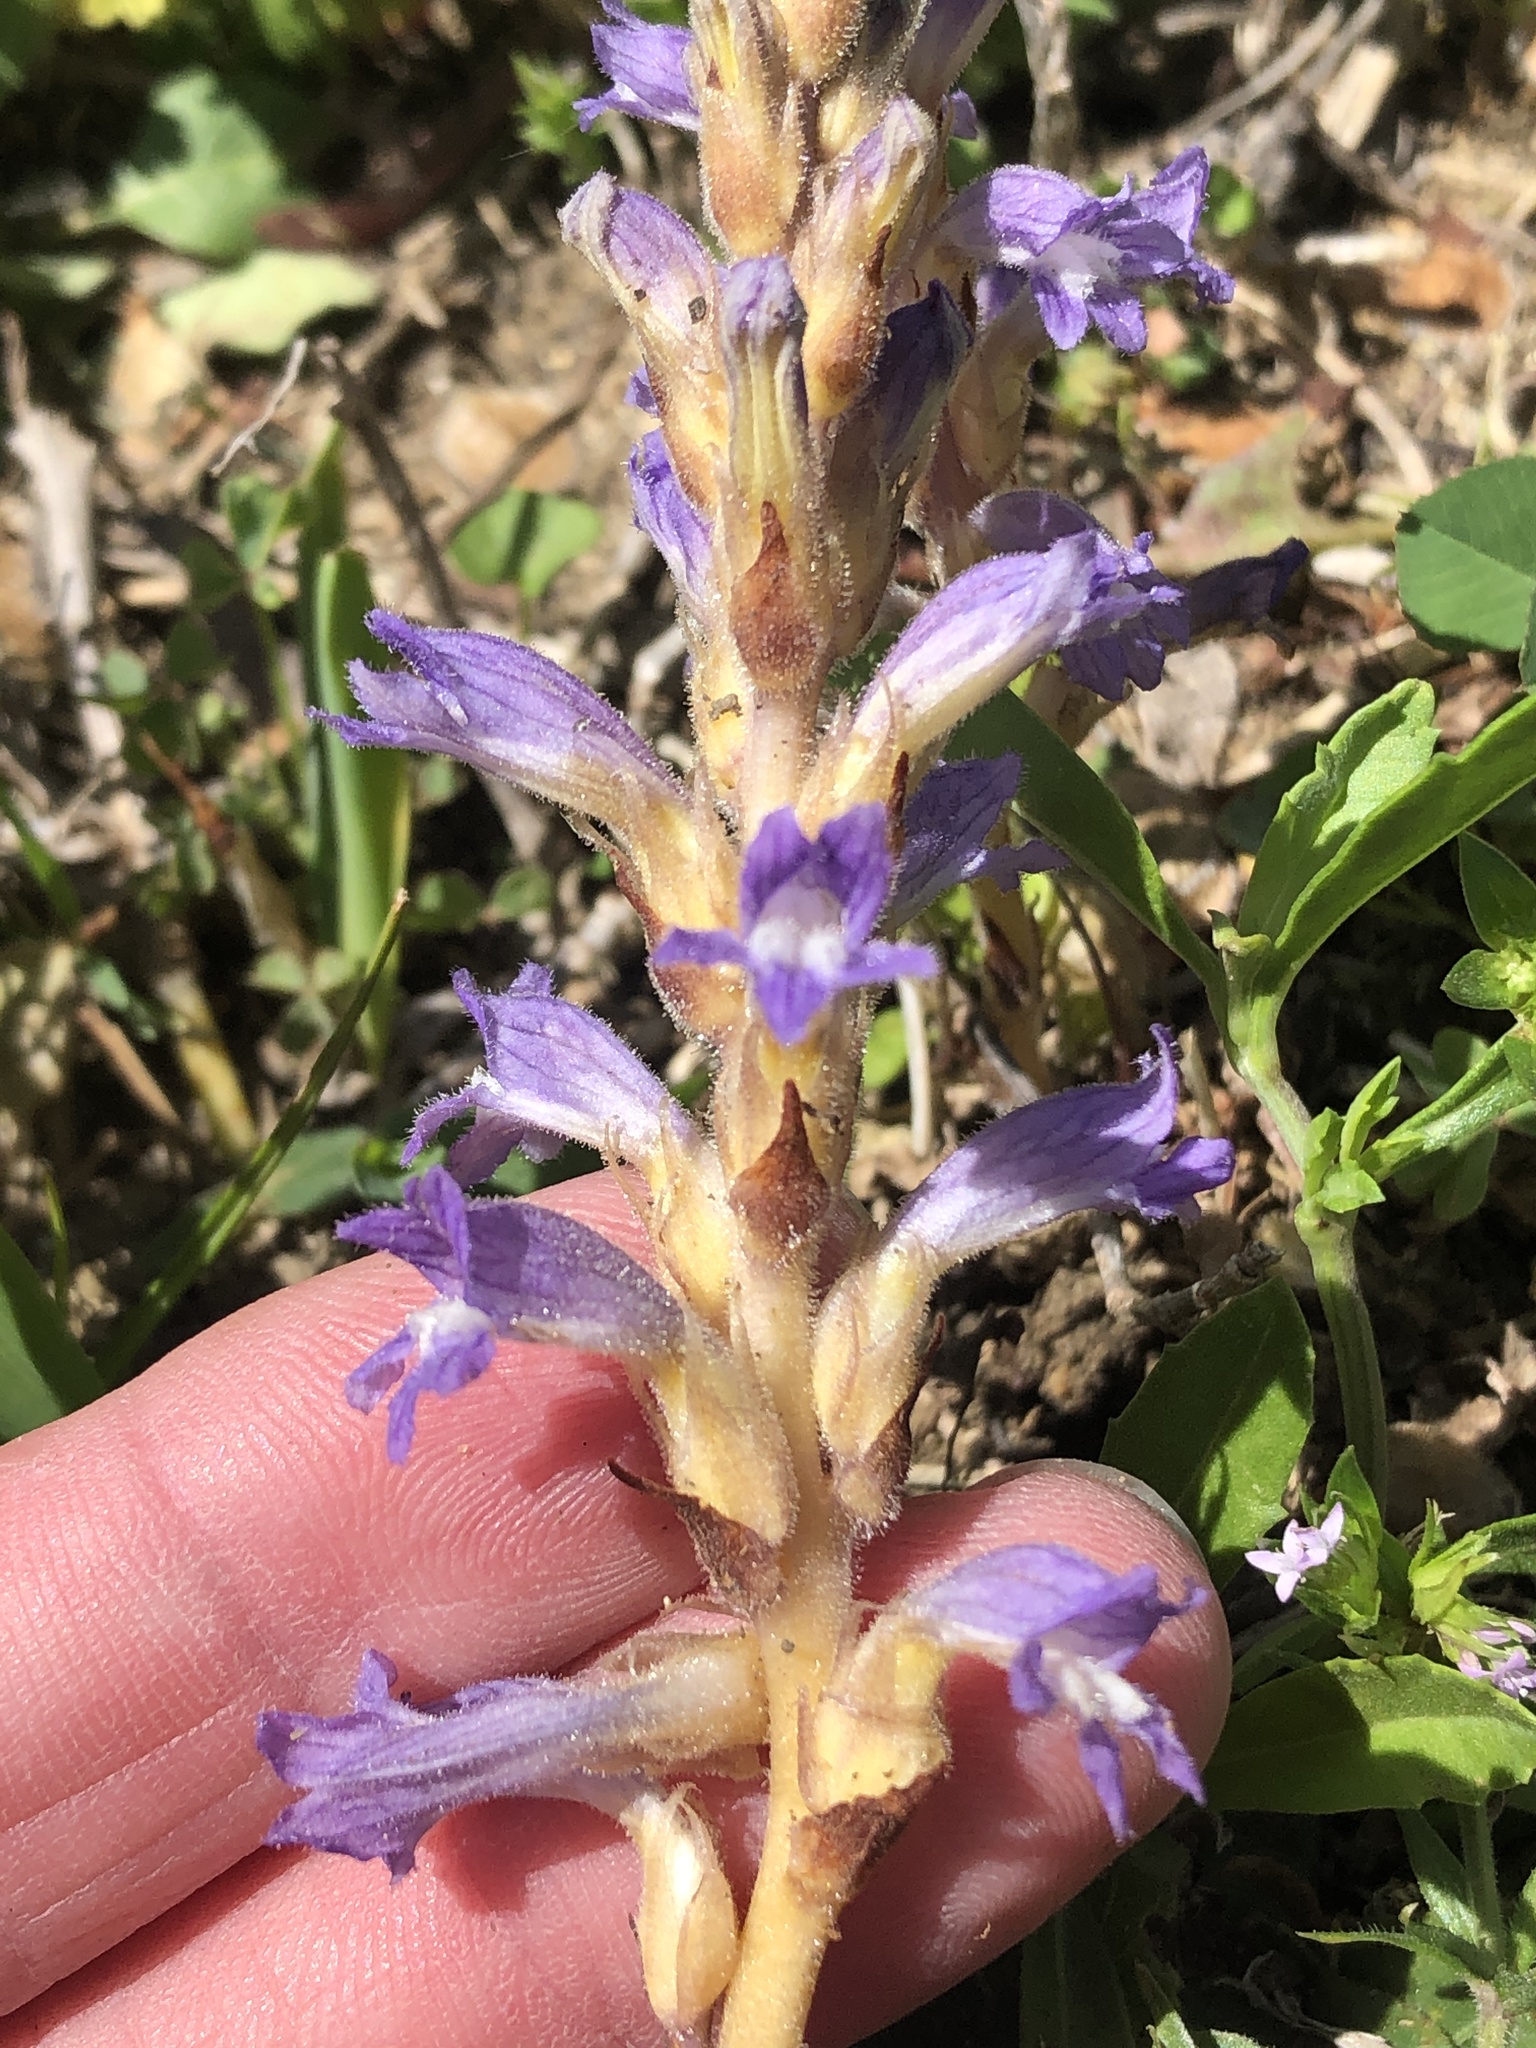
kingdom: Plantae
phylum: Tracheophyta
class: Magnoliopsida
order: Lamiales
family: Orobanchaceae
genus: Phelipanche
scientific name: Phelipanche mutelii
